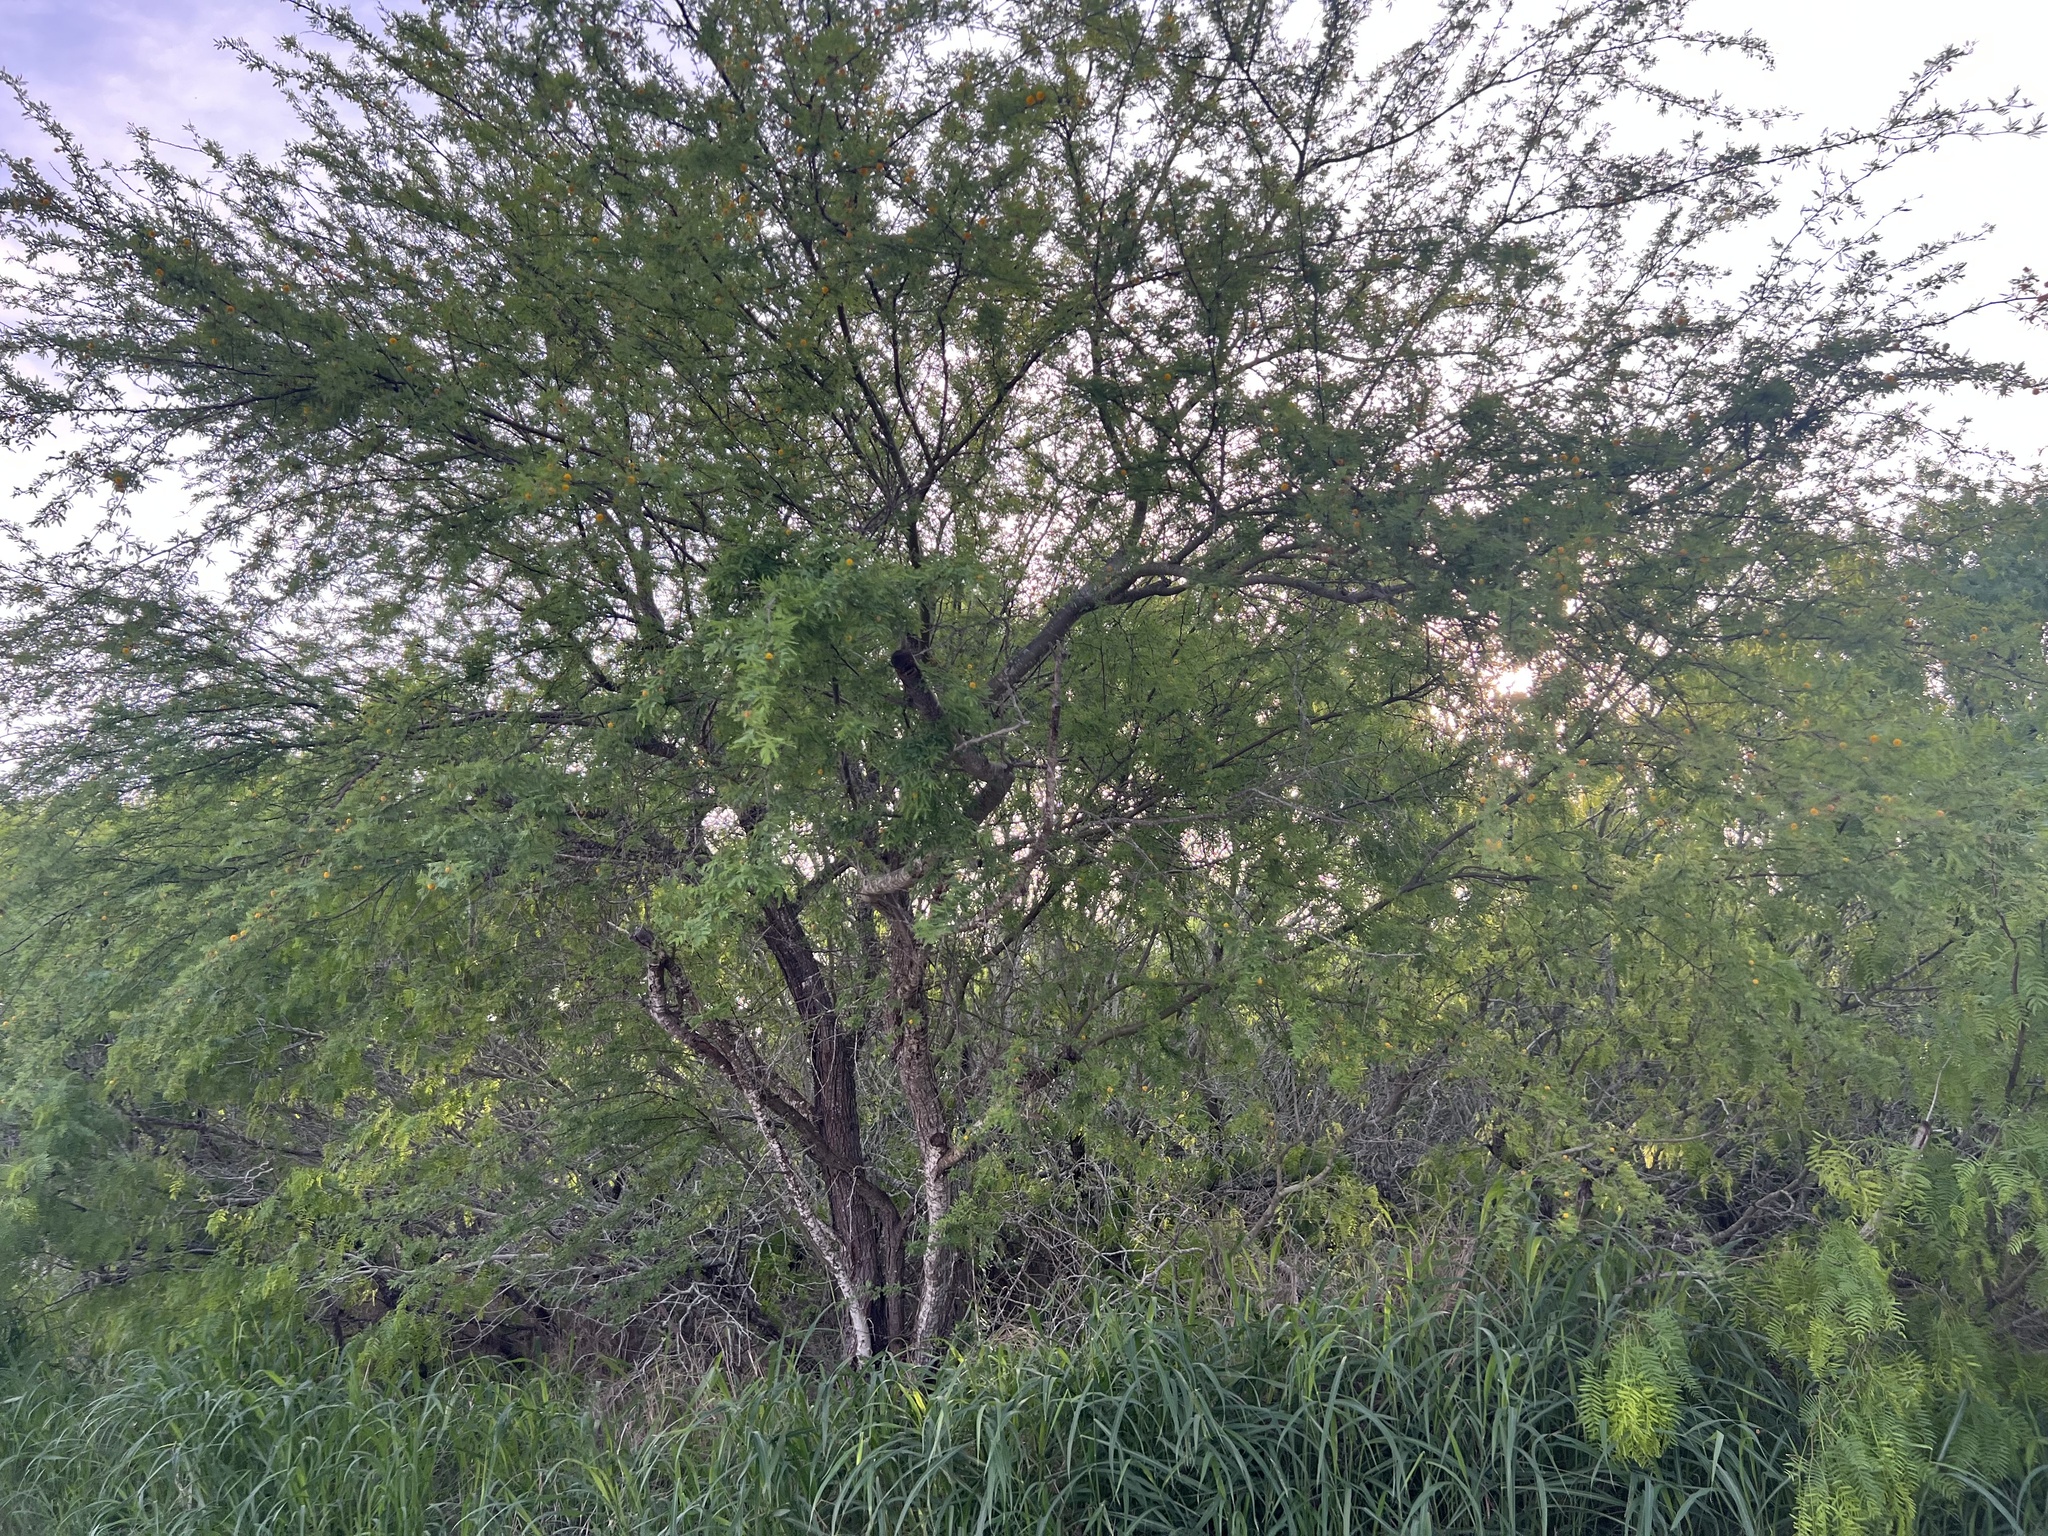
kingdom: Plantae
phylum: Tracheophyta
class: Magnoliopsida
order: Fabales
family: Fabaceae
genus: Vachellia
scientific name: Vachellia farnesiana
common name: Sweet acacia
